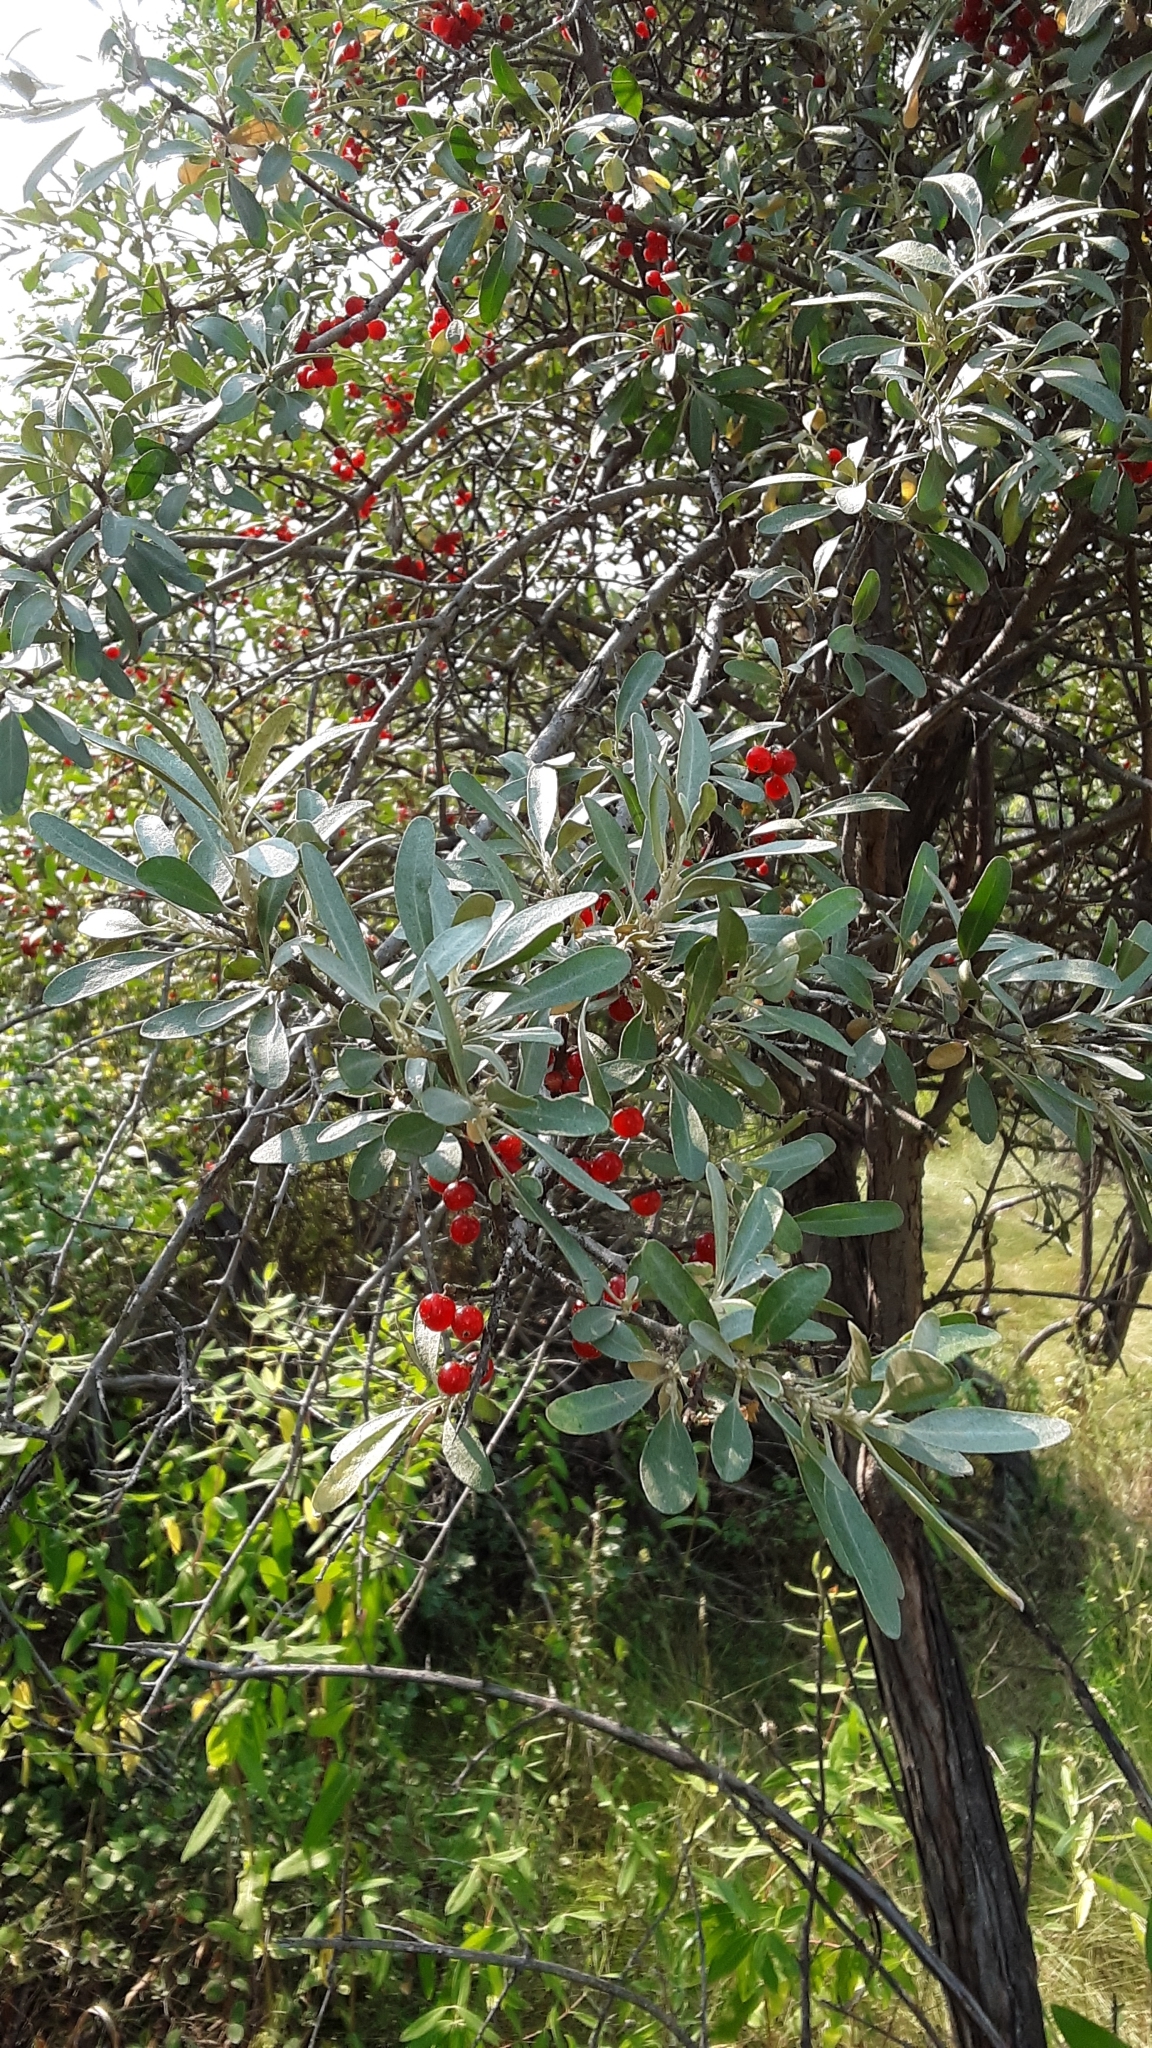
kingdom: Plantae
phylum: Tracheophyta
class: Magnoliopsida
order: Rosales
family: Elaeagnaceae
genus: Shepherdia
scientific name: Shepherdia argentea
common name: Silver buffaloberry
